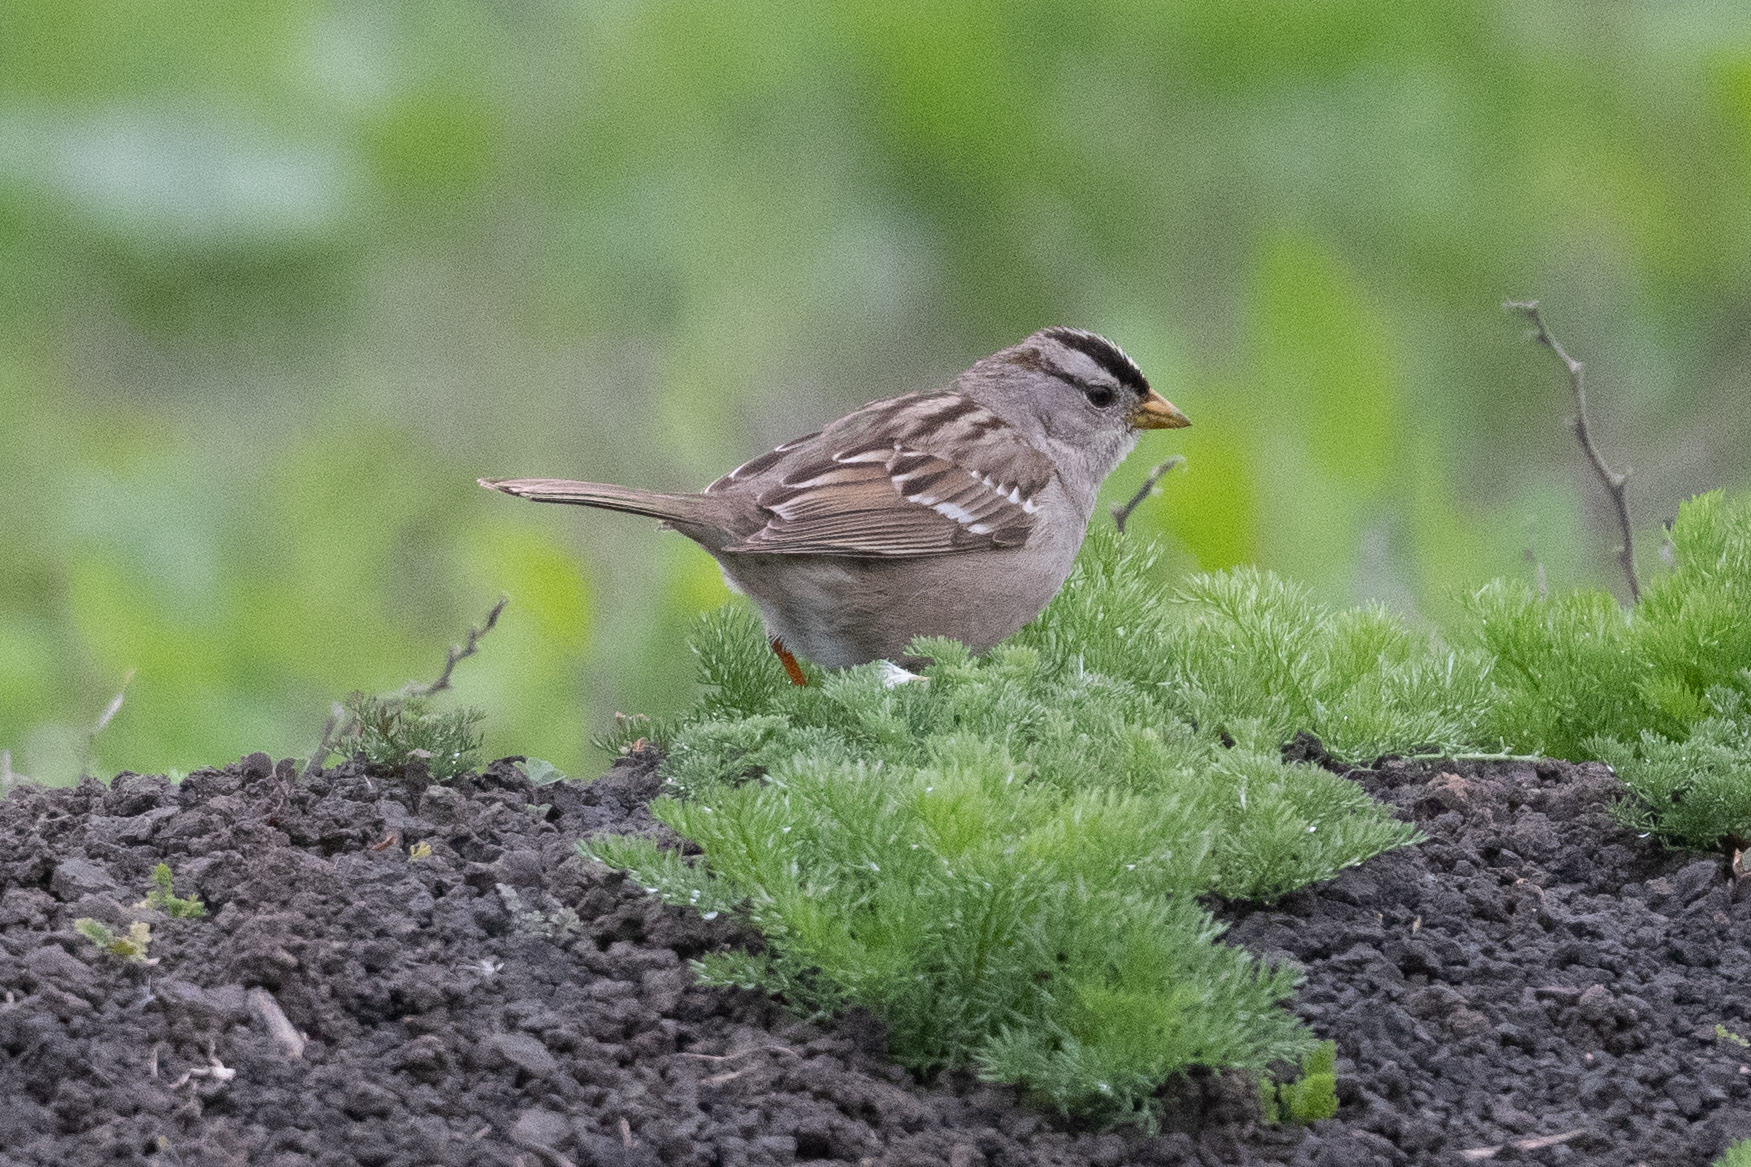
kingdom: Animalia
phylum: Chordata
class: Aves
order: Passeriformes
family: Passerellidae
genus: Zonotrichia
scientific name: Zonotrichia leucophrys
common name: White-crowned sparrow
